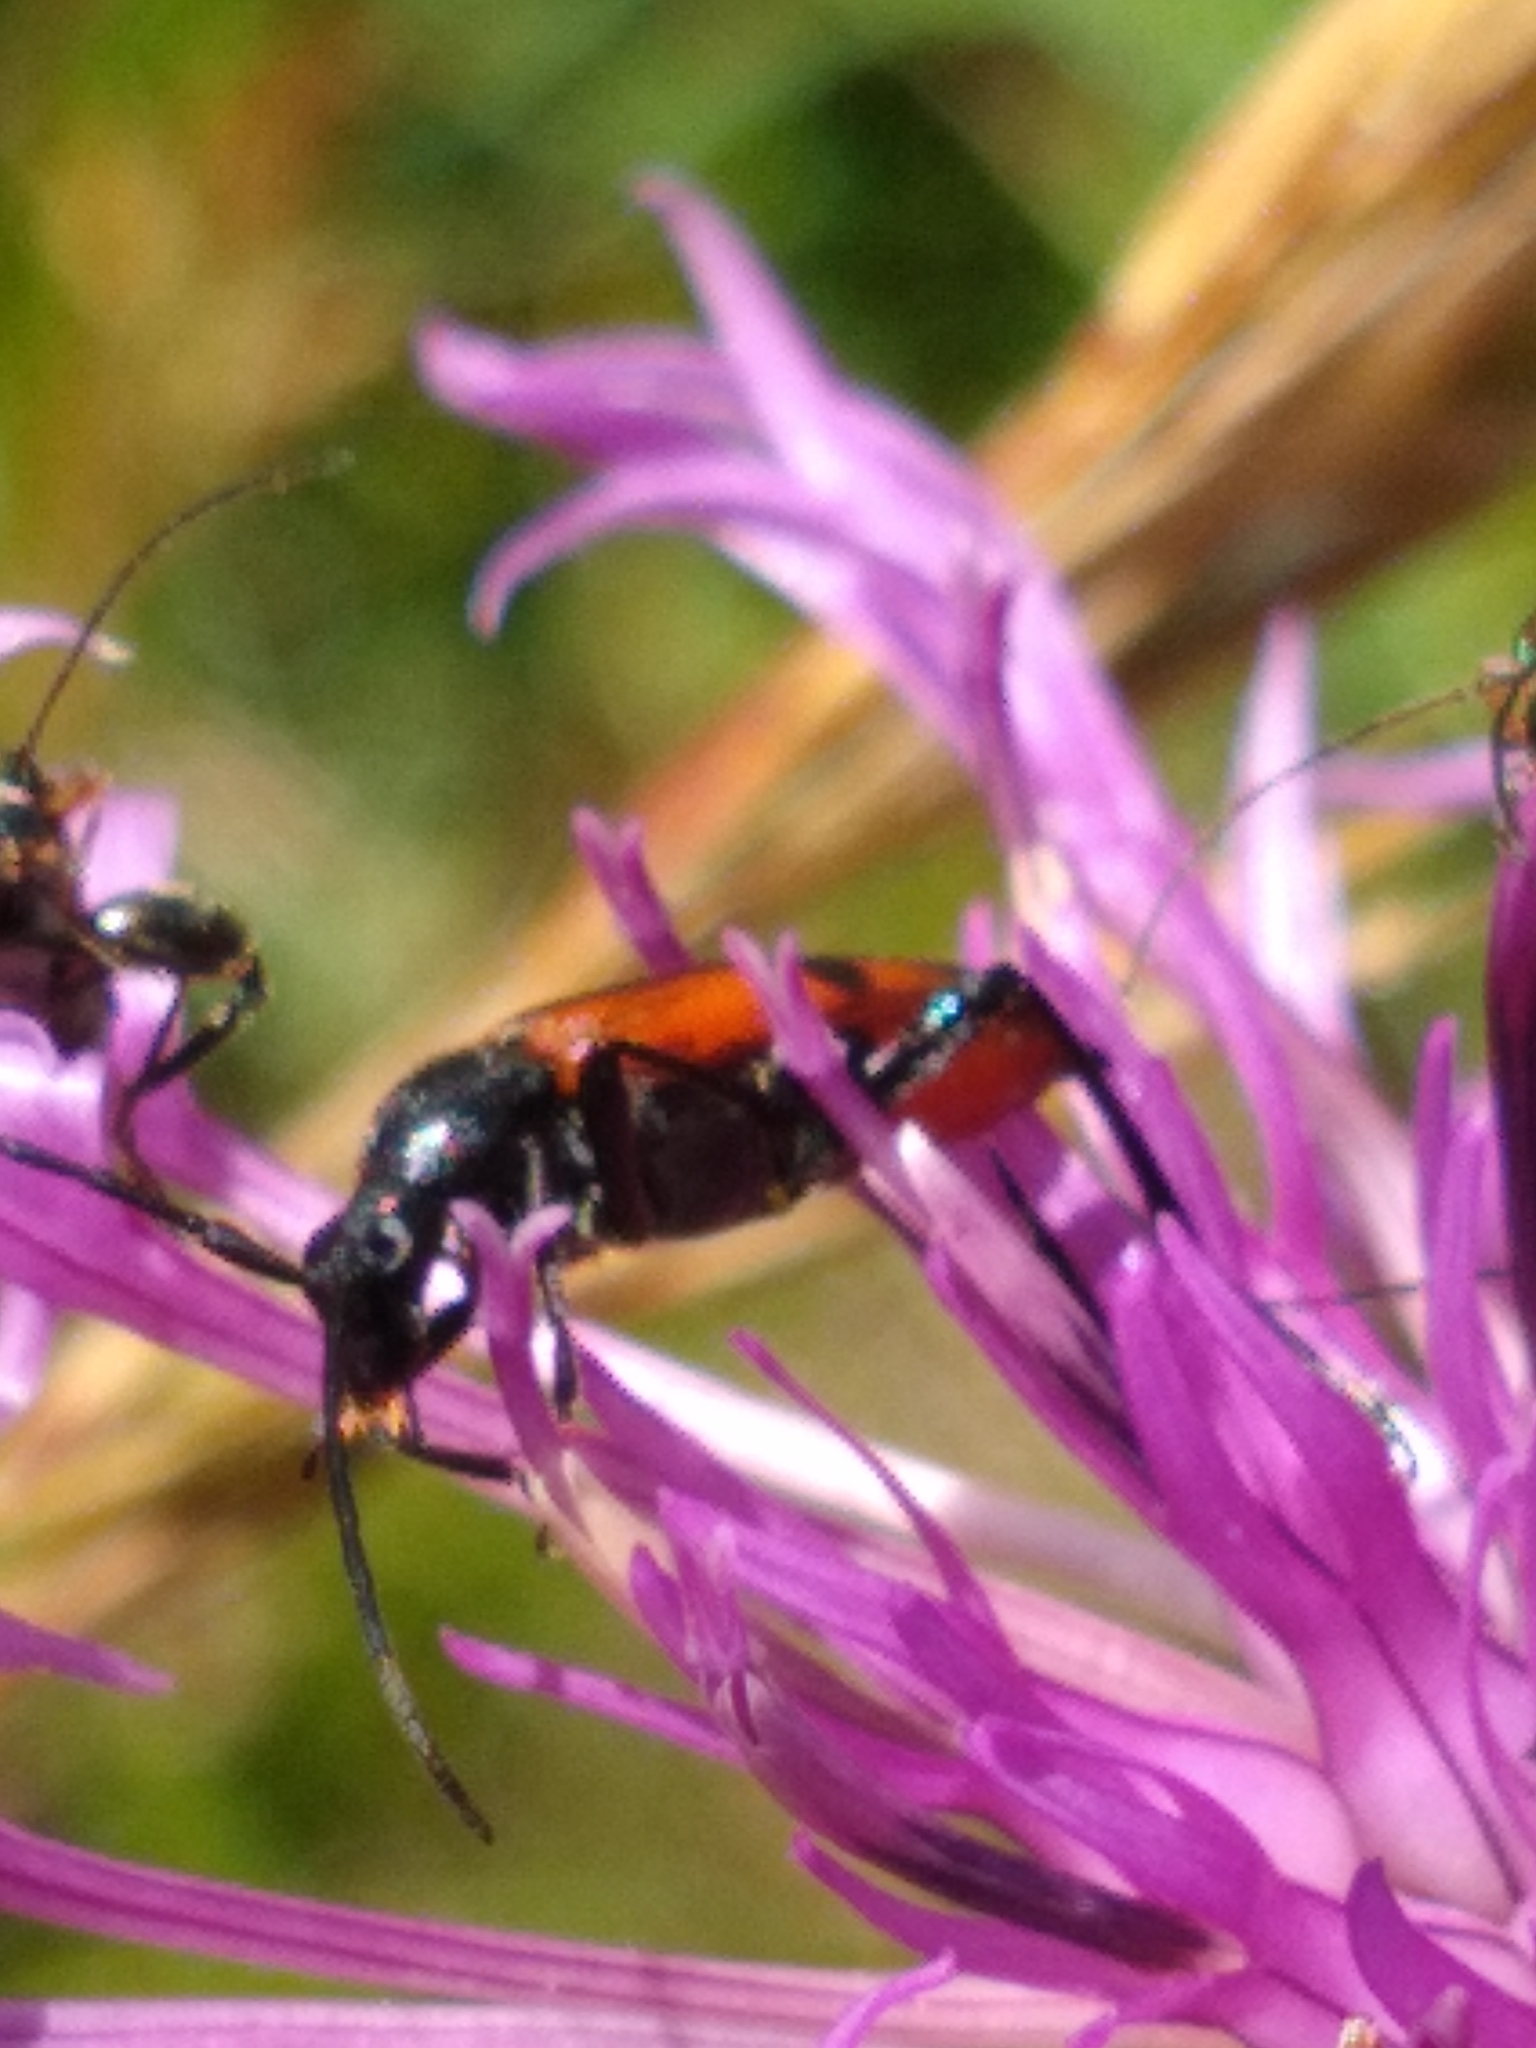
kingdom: Animalia
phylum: Arthropoda
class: Insecta
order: Coleoptera
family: Cerambycidae
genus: Stenurella
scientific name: Stenurella bifasciata
